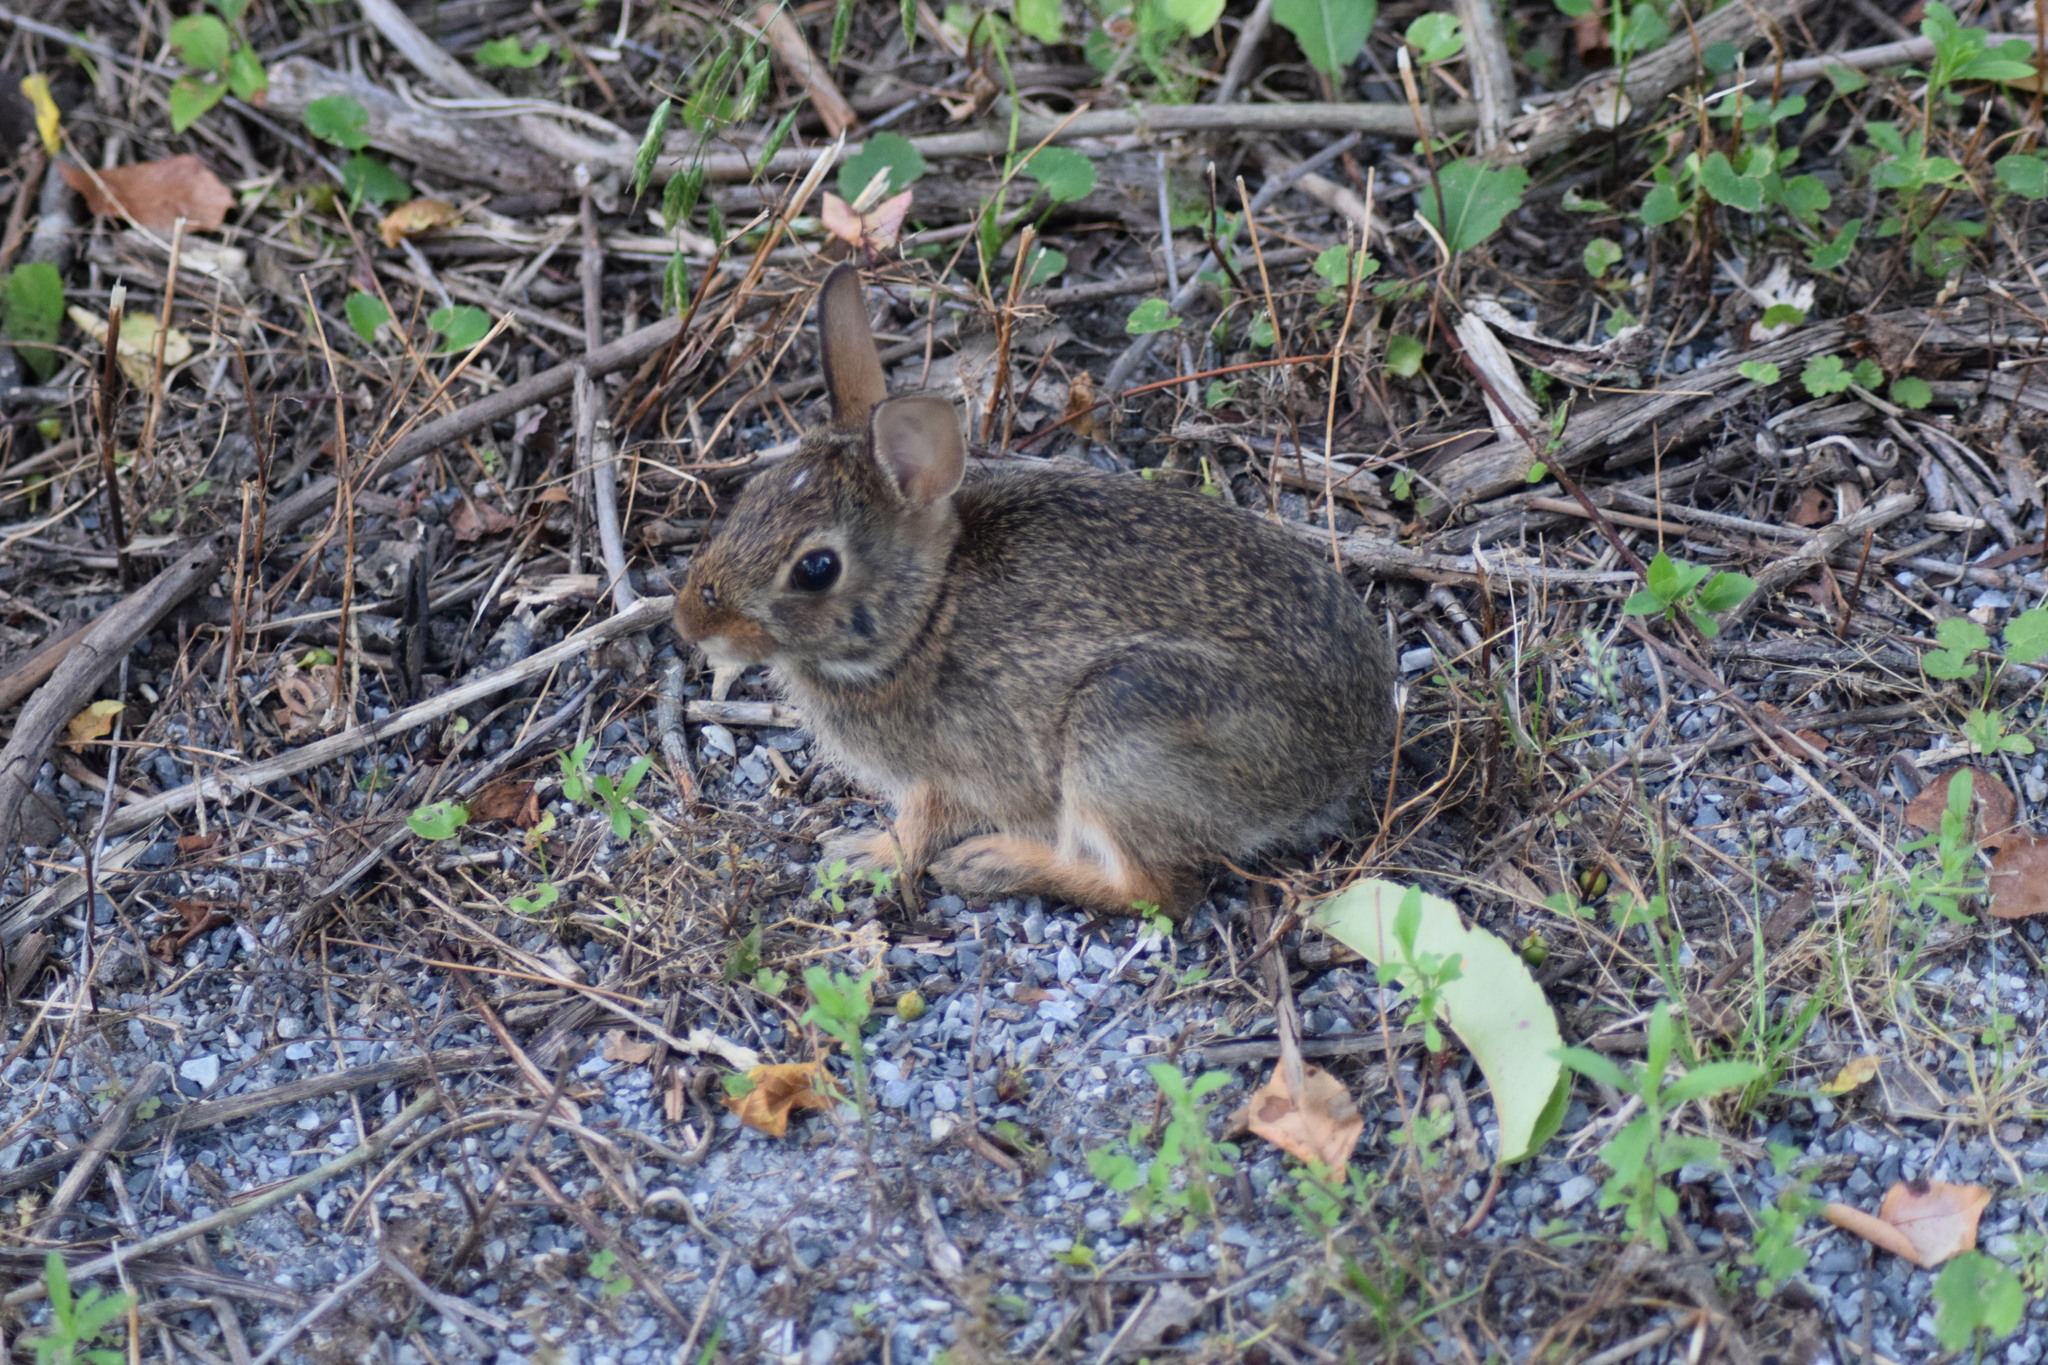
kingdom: Animalia
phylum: Chordata
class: Mammalia
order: Lagomorpha
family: Leporidae
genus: Sylvilagus
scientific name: Sylvilagus floridanus
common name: Eastern cottontail
